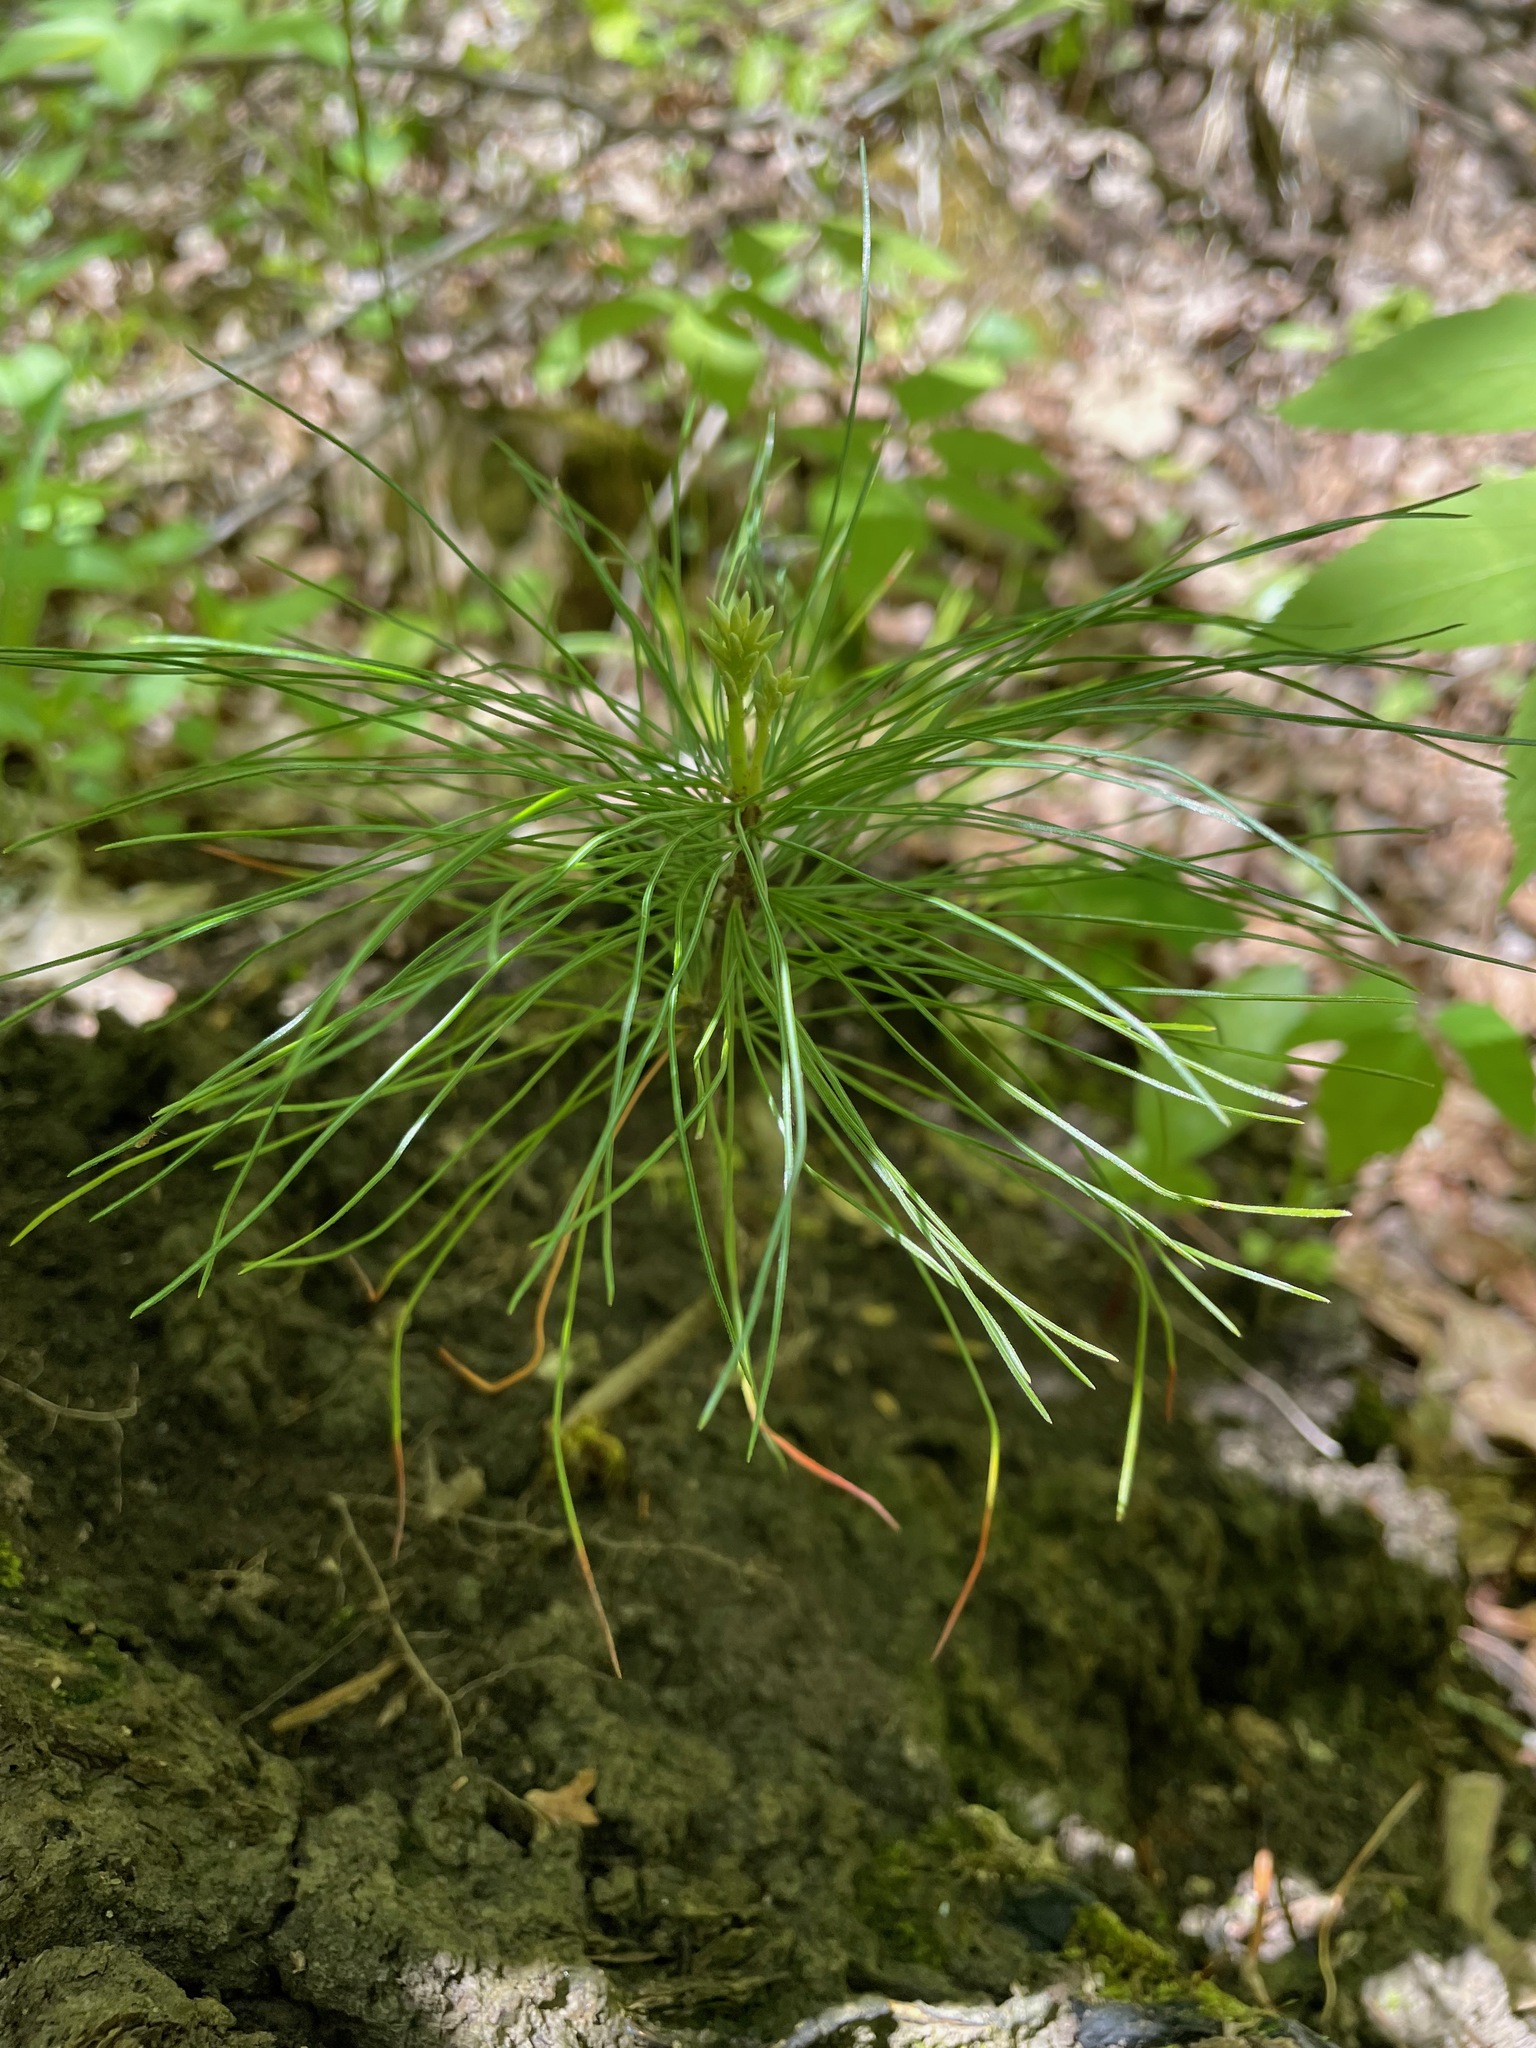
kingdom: Plantae
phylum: Tracheophyta
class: Pinopsida
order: Pinales
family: Pinaceae
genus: Pinus
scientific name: Pinus strobus
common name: Weymouth pine
